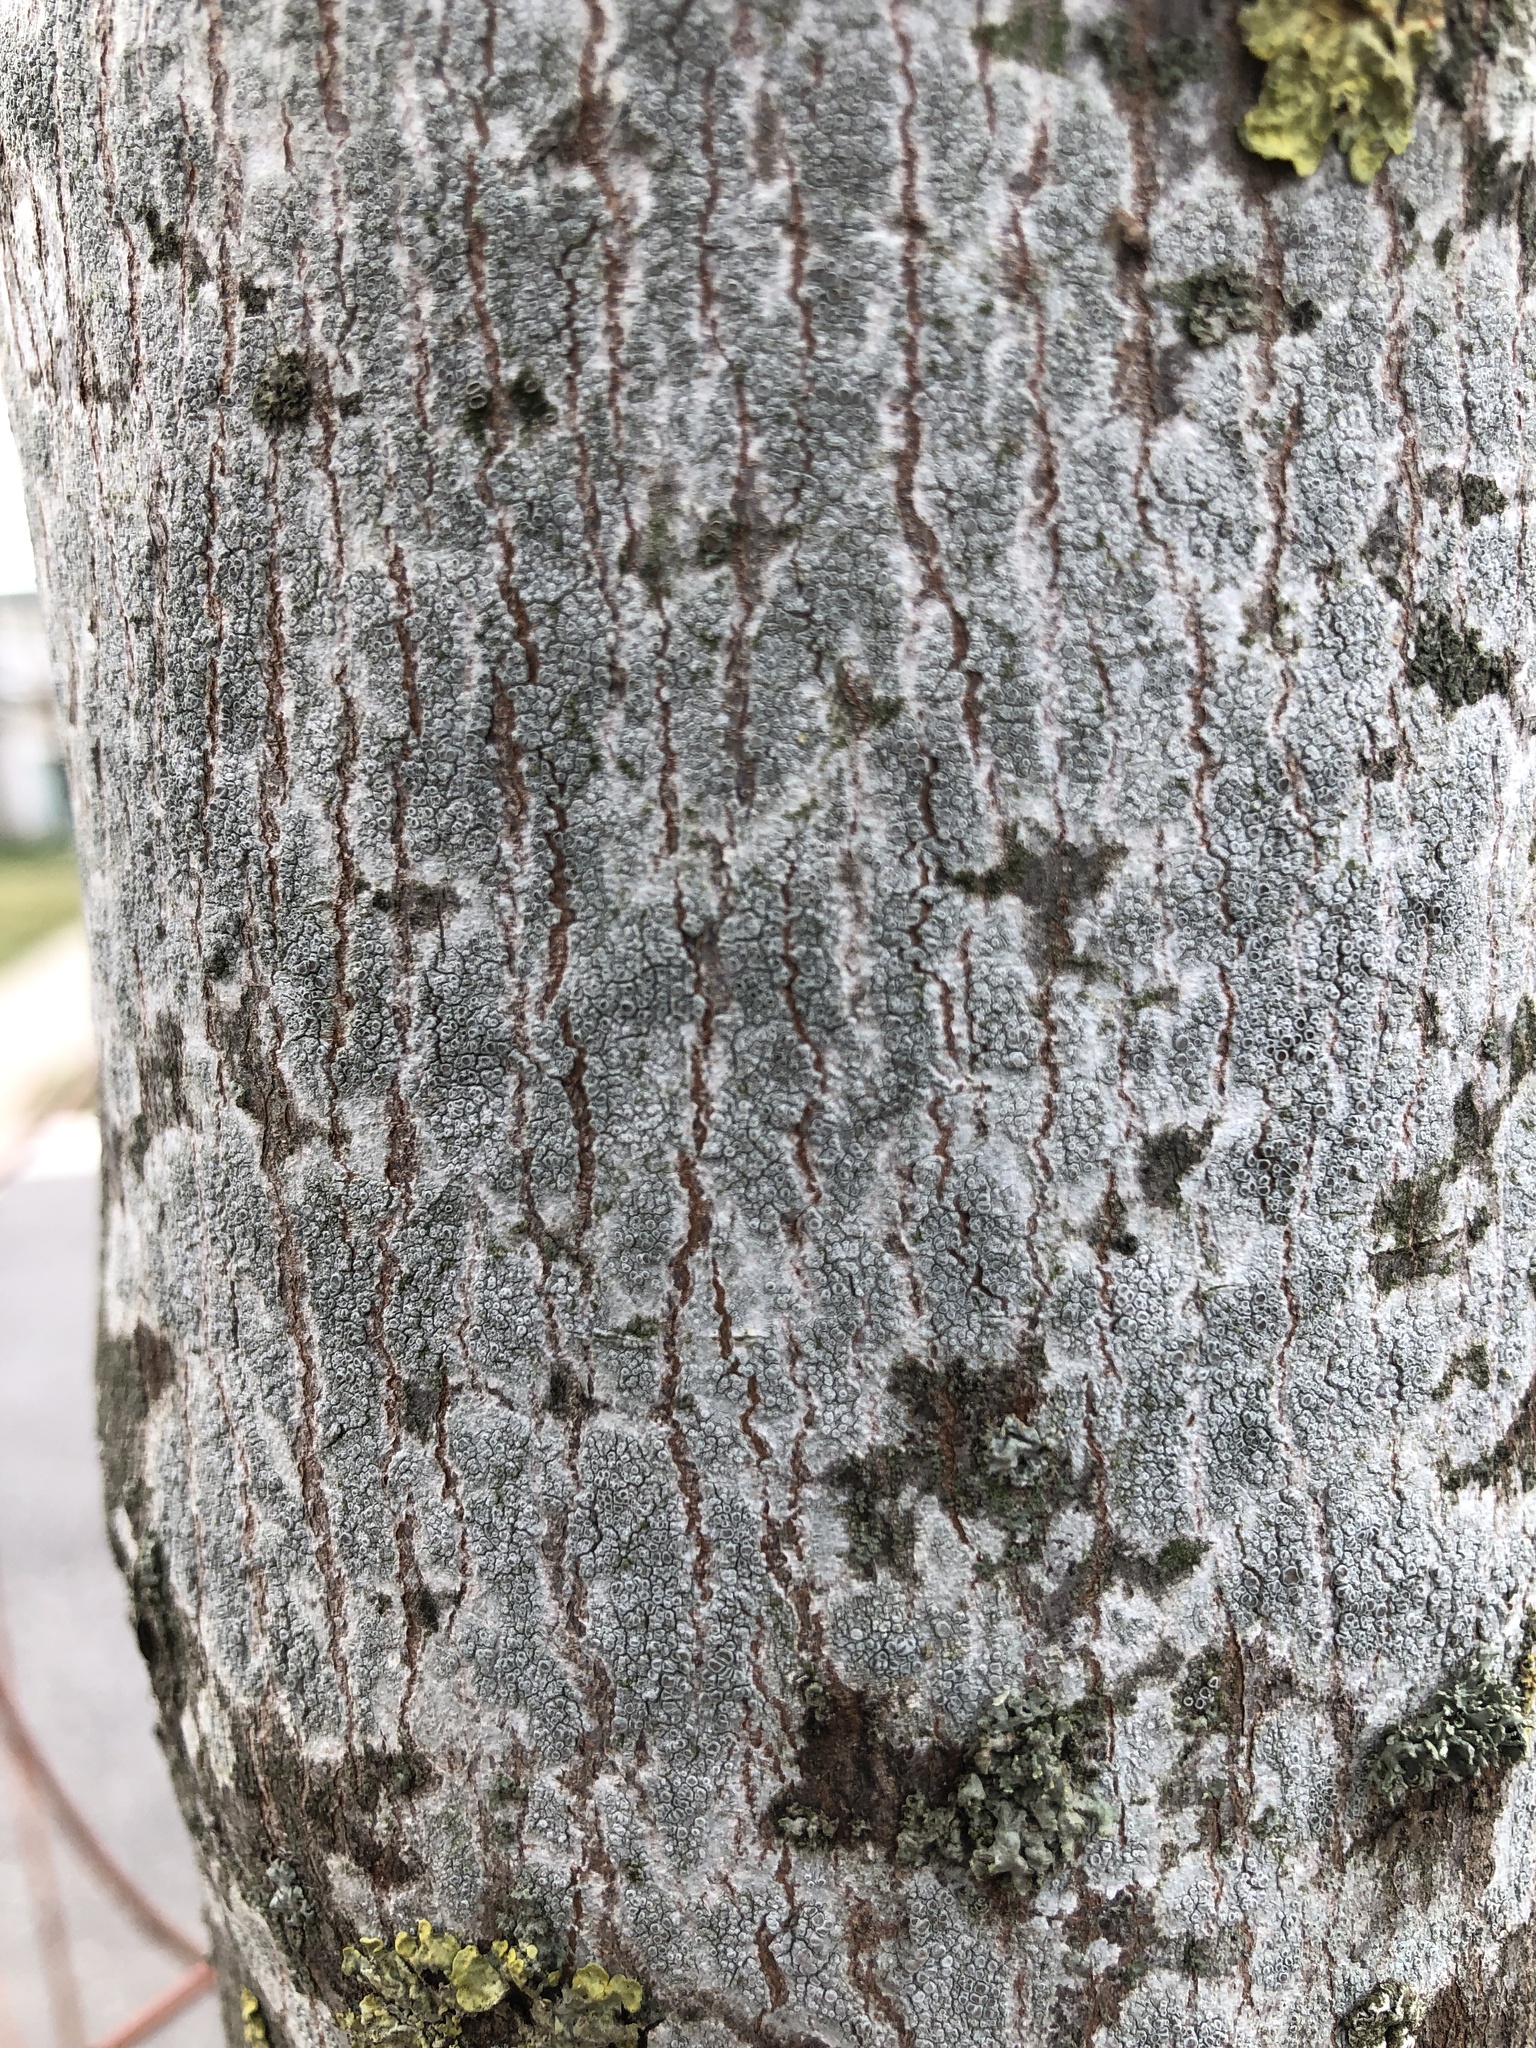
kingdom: Fungi
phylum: Ascomycota
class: Lecanoromycetes
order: Lecanorales
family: Lecanoraceae
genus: Lecanora
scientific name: Lecanora hybocarpa
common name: Bumpy rim-lichen
